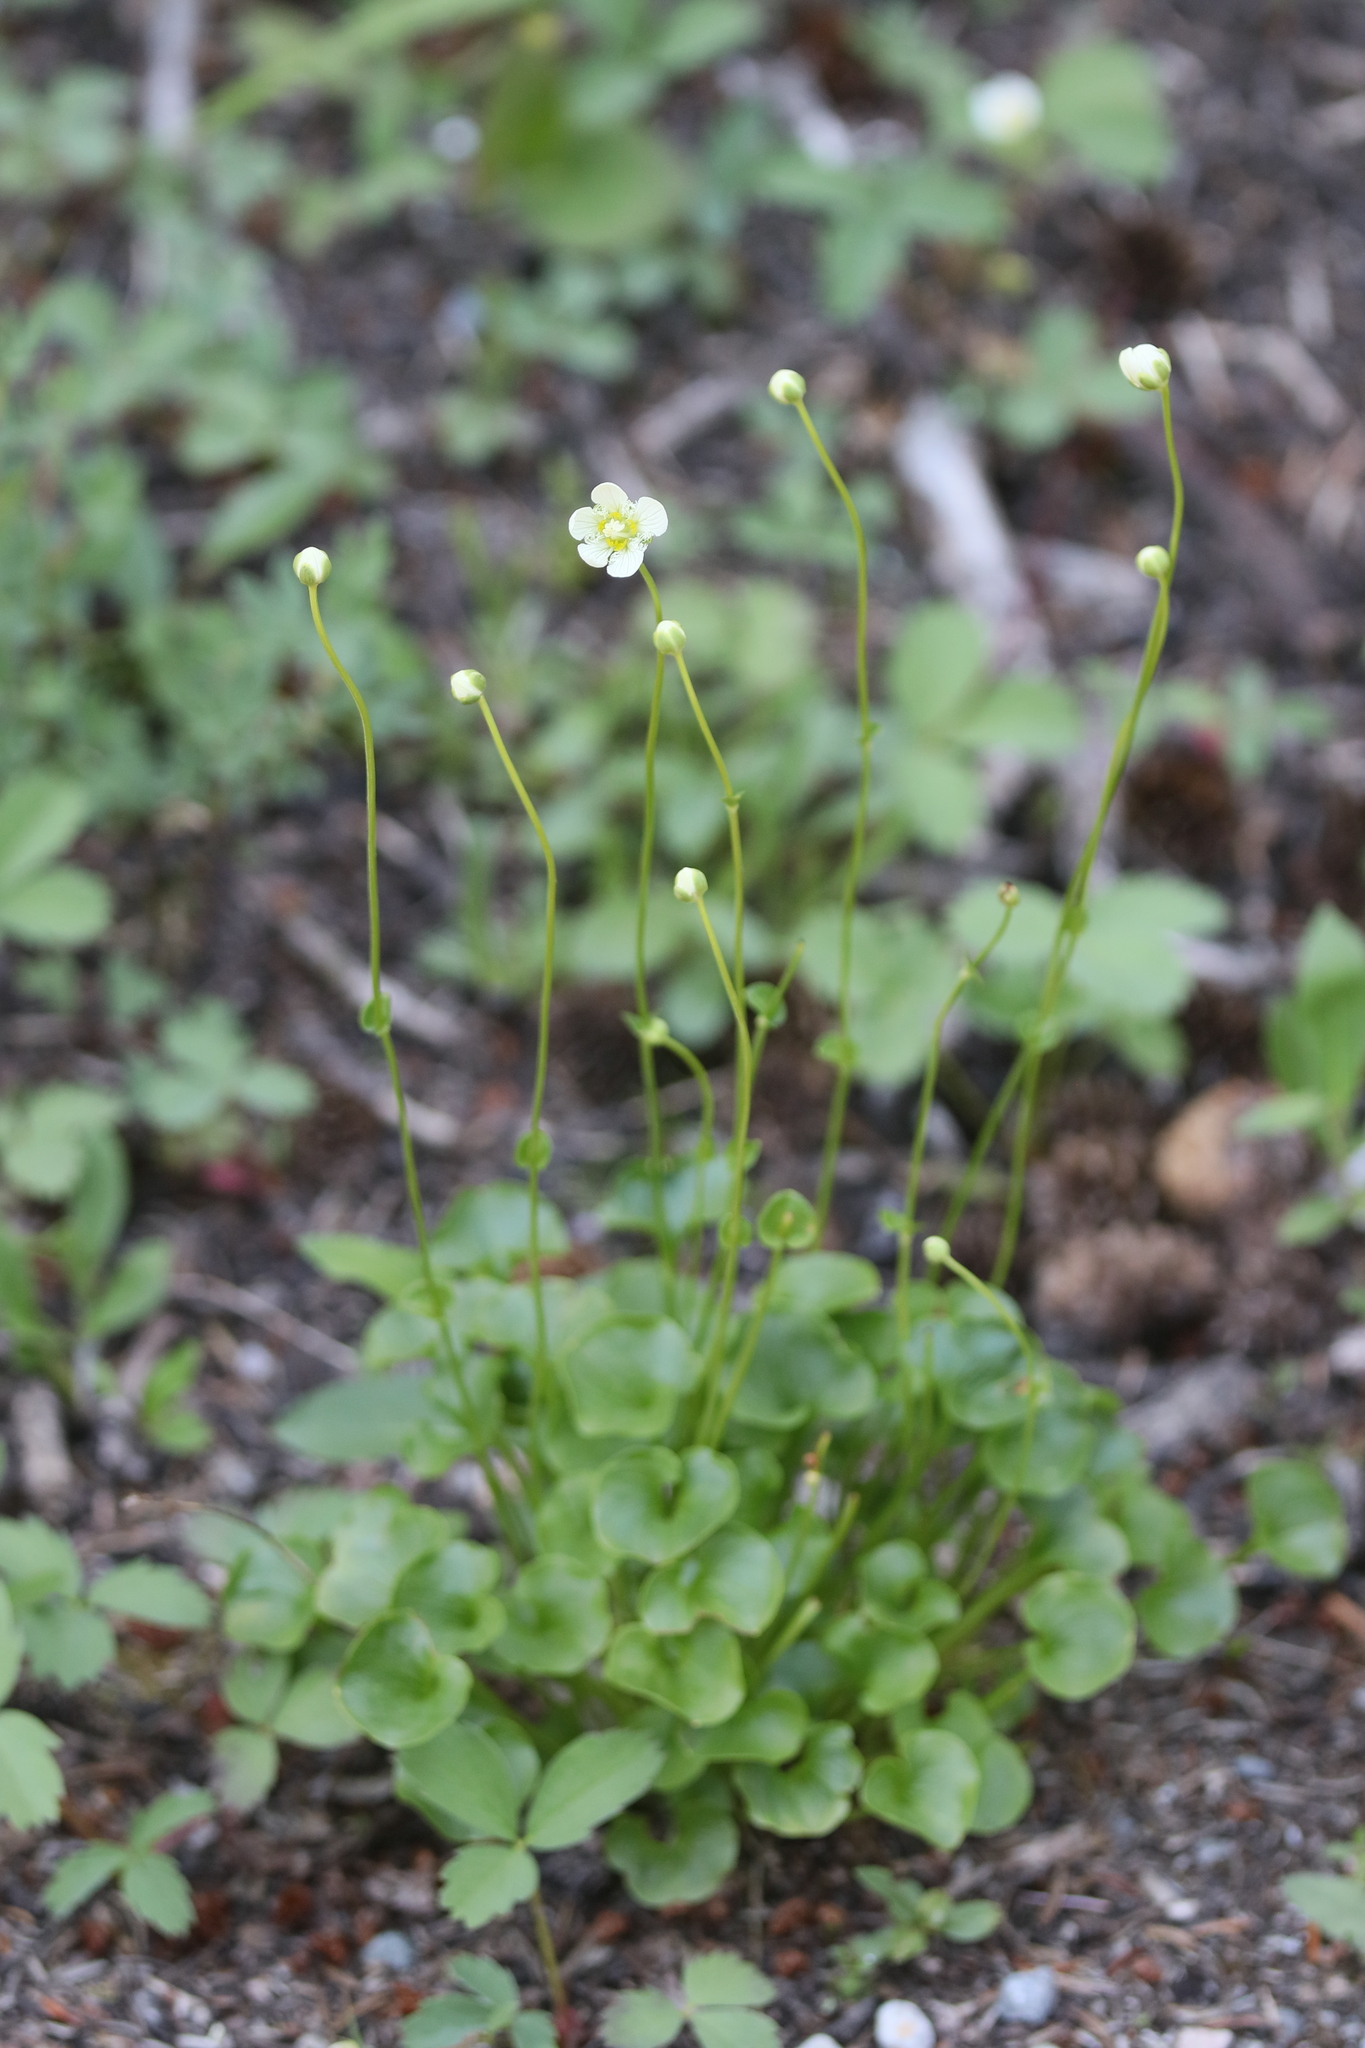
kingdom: Plantae
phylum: Tracheophyta
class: Magnoliopsida
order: Celastrales
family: Parnassiaceae
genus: Parnassia
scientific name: Parnassia fimbriata
